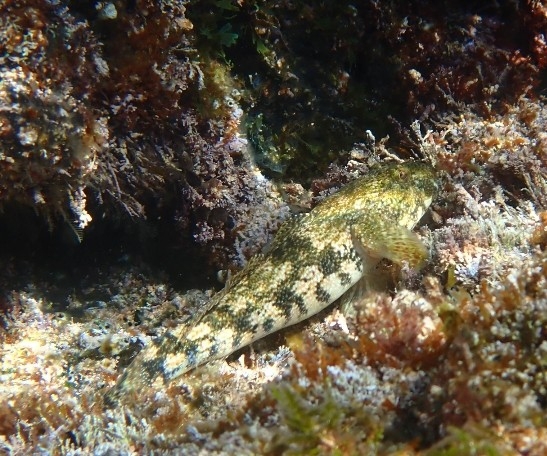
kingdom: Animalia
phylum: Chordata
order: Perciformes
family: Gobiidae
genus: Gobius
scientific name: Gobius cobitis
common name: Giant goby
